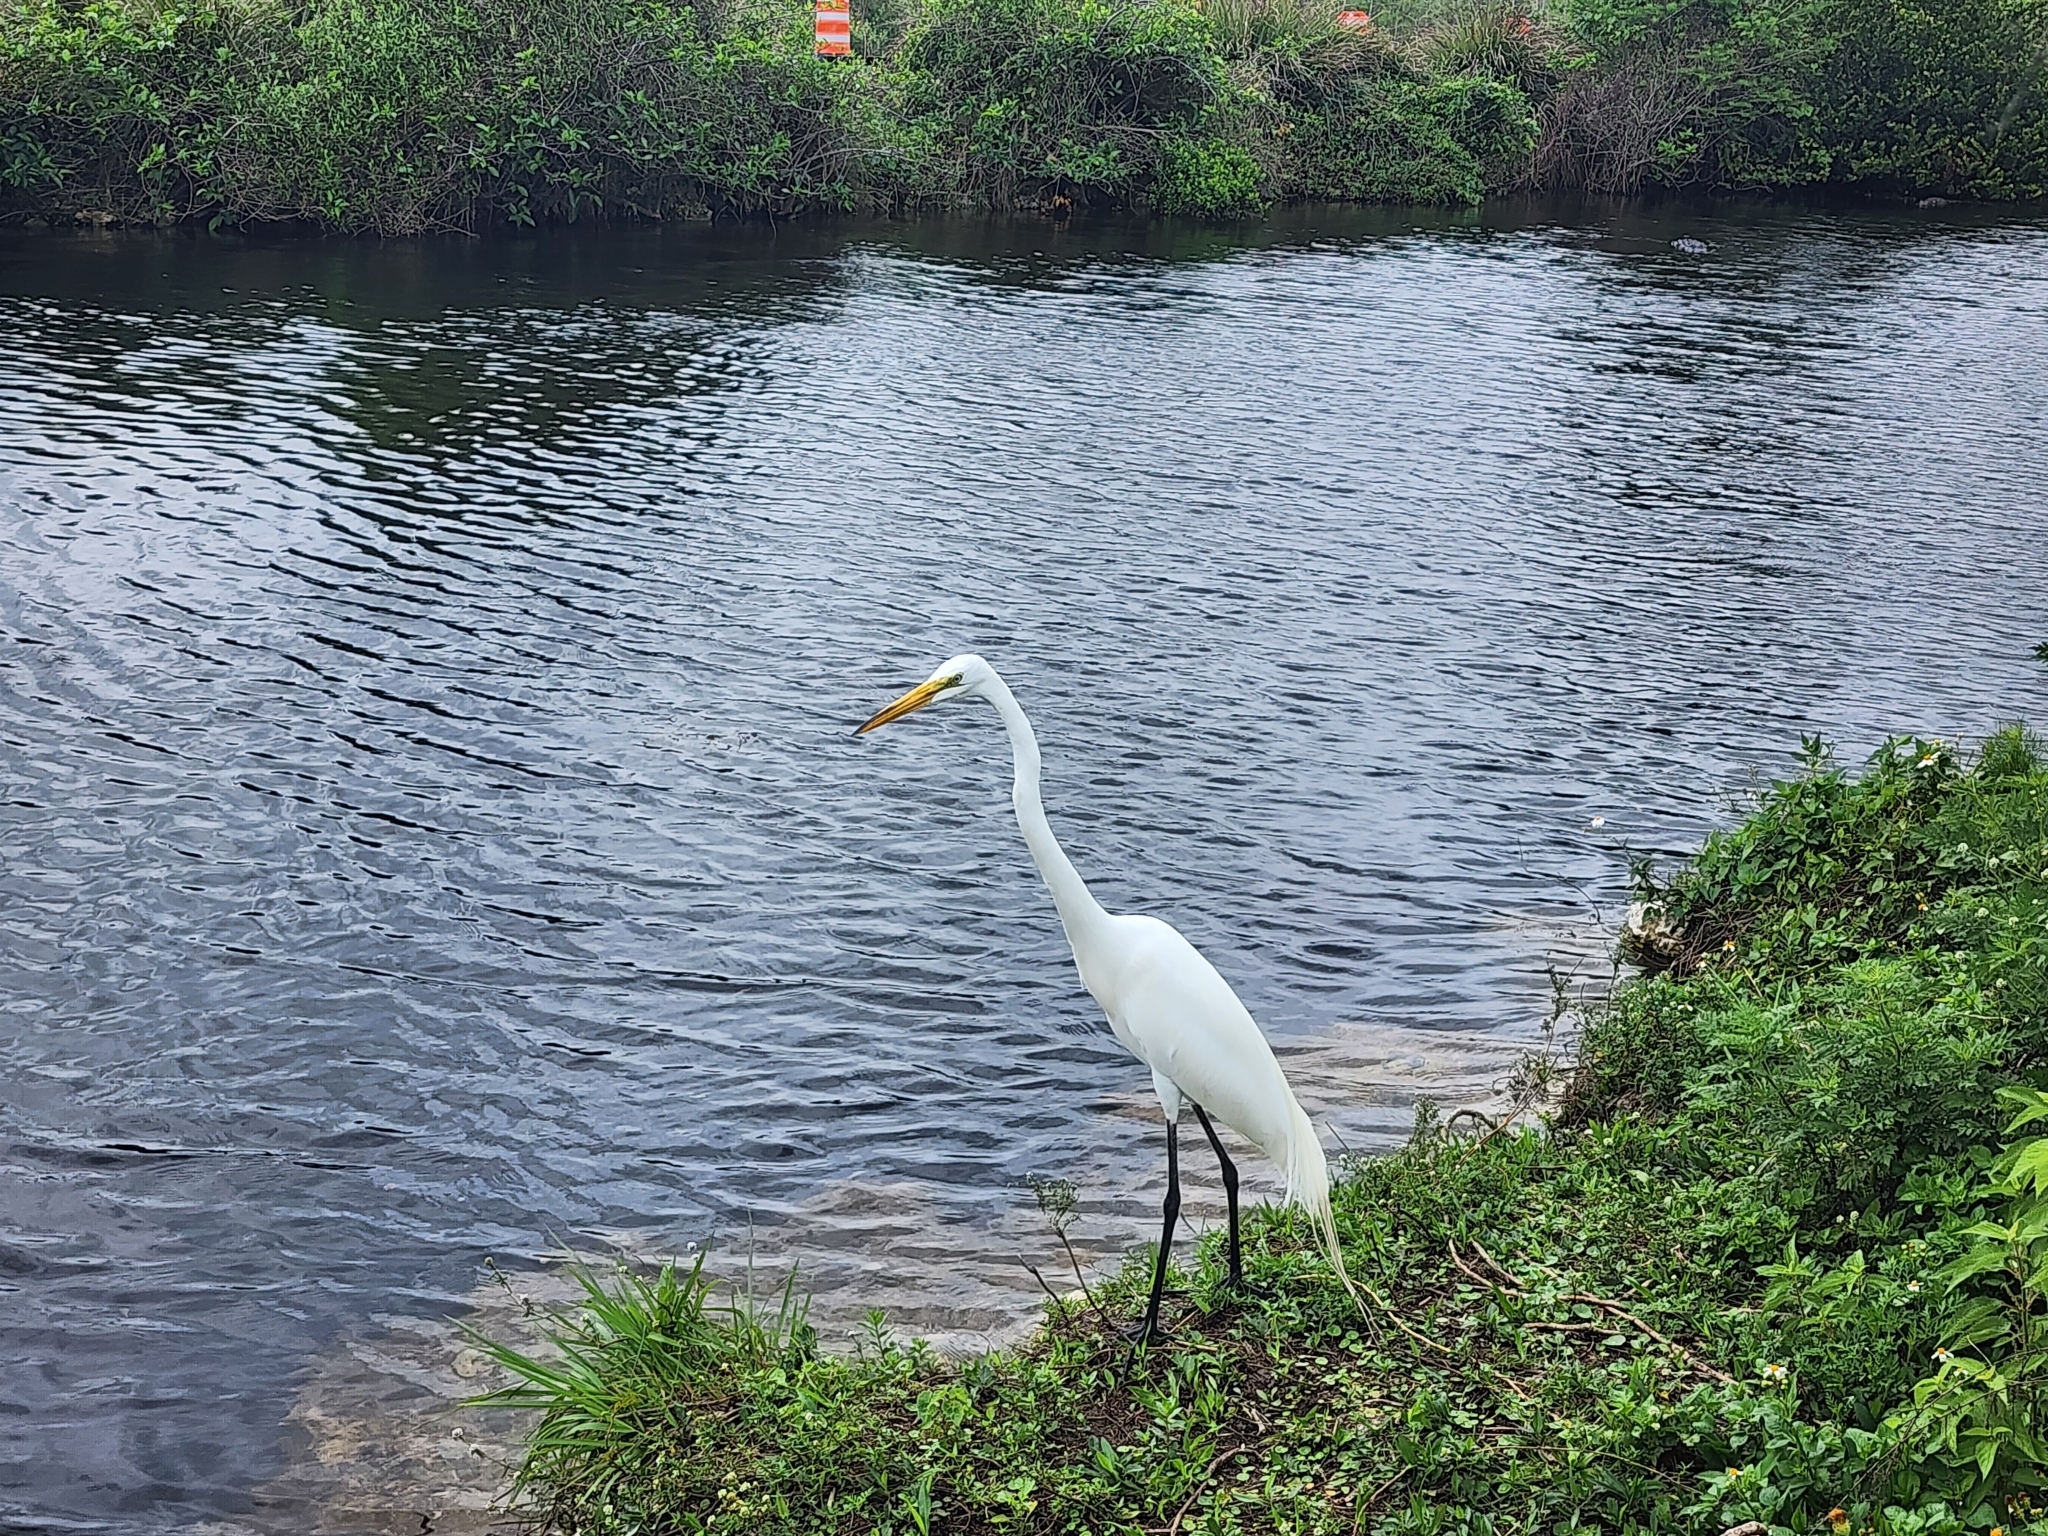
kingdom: Animalia
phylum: Chordata
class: Aves
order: Pelecaniformes
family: Ardeidae
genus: Ardea
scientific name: Ardea alba
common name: Great egret
